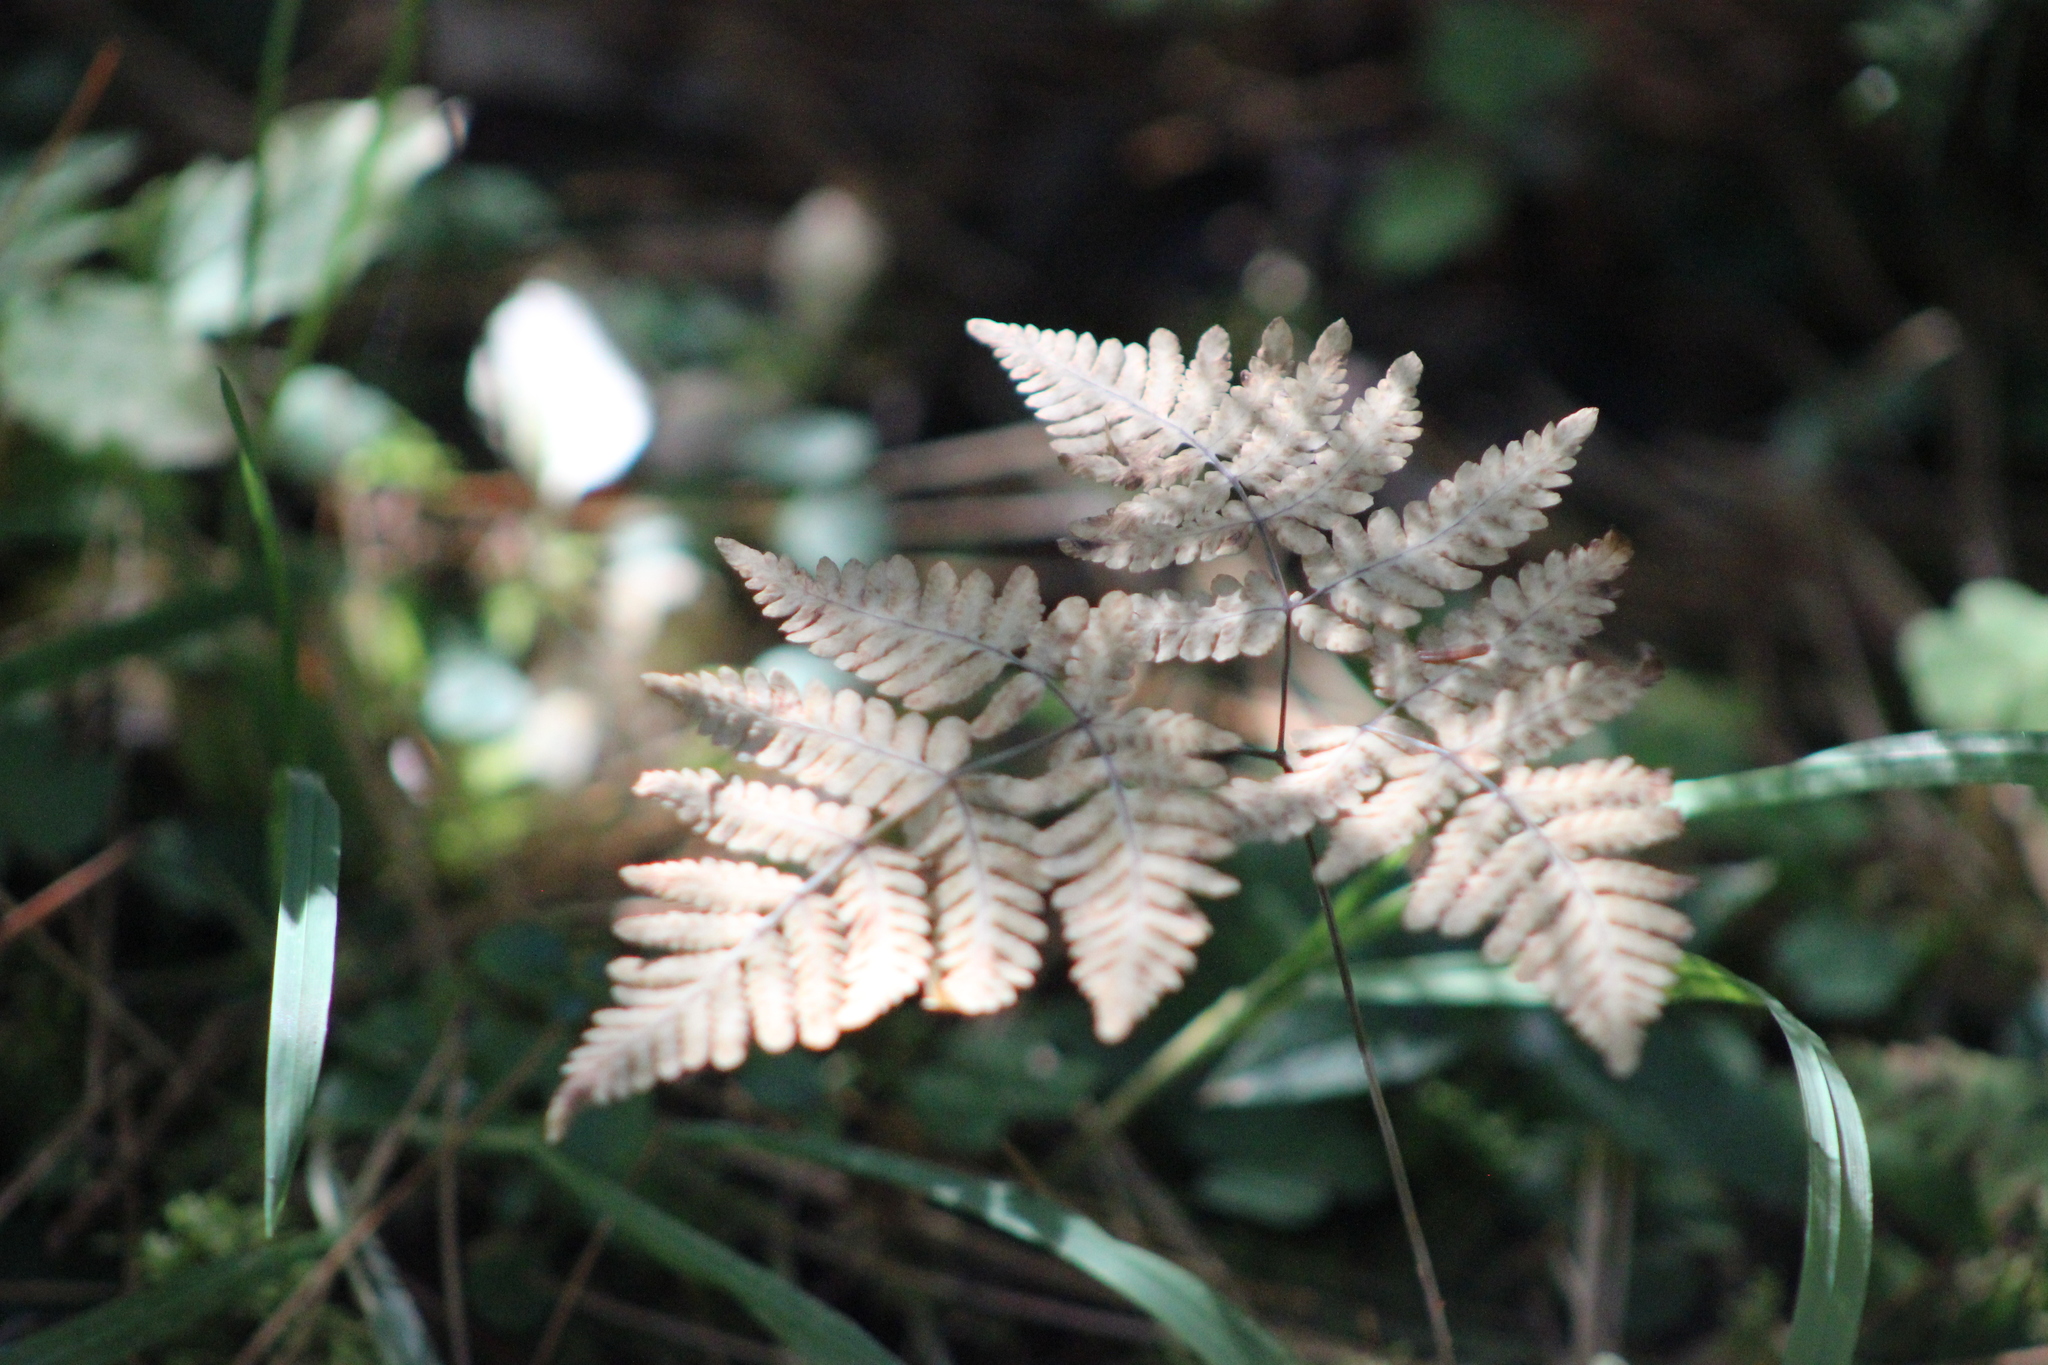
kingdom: Plantae
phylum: Tracheophyta
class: Polypodiopsida
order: Polypodiales
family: Cystopteridaceae
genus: Gymnocarpium
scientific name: Gymnocarpium dryopteris
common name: Oak fern
